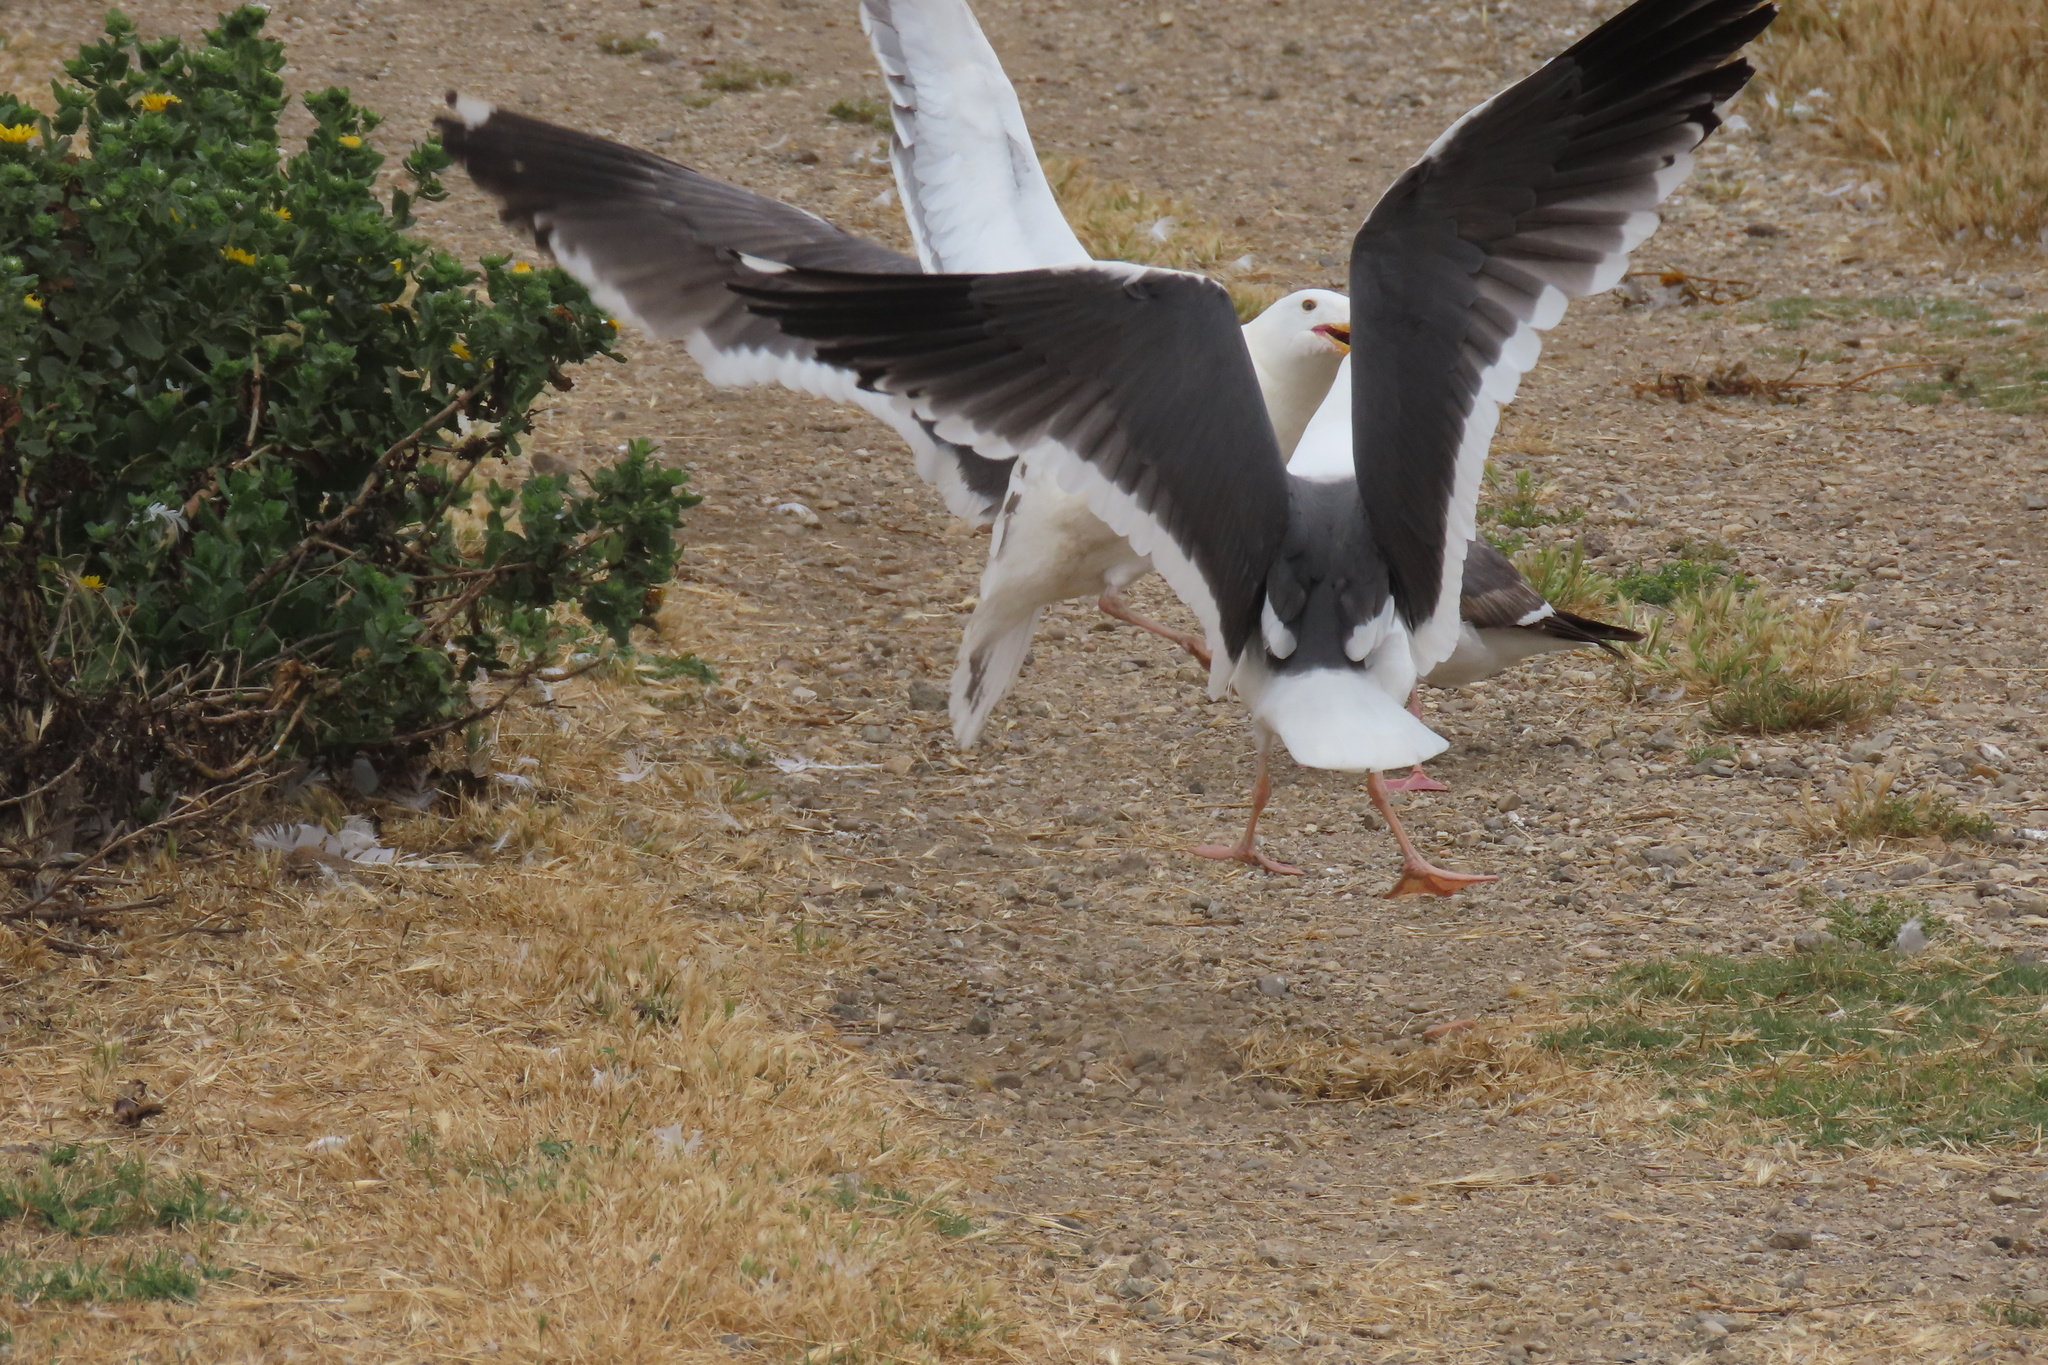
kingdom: Animalia
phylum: Chordata
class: Aves
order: Charadriiformes
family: Laridae
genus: Larus
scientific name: Larus occidentalis
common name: Western gull
